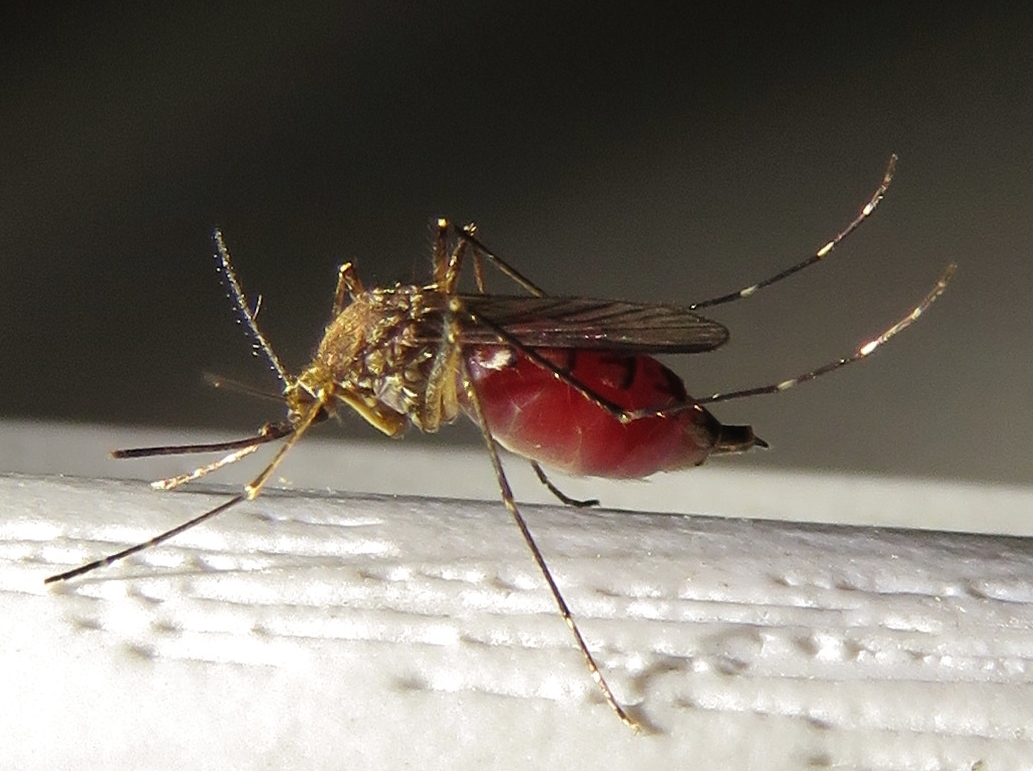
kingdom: Animalia
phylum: Arthropoda
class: Insecta
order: Diptera
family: Culicidae
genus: Aedes
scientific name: Aedes vexans
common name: Inland floodwater mosquito
